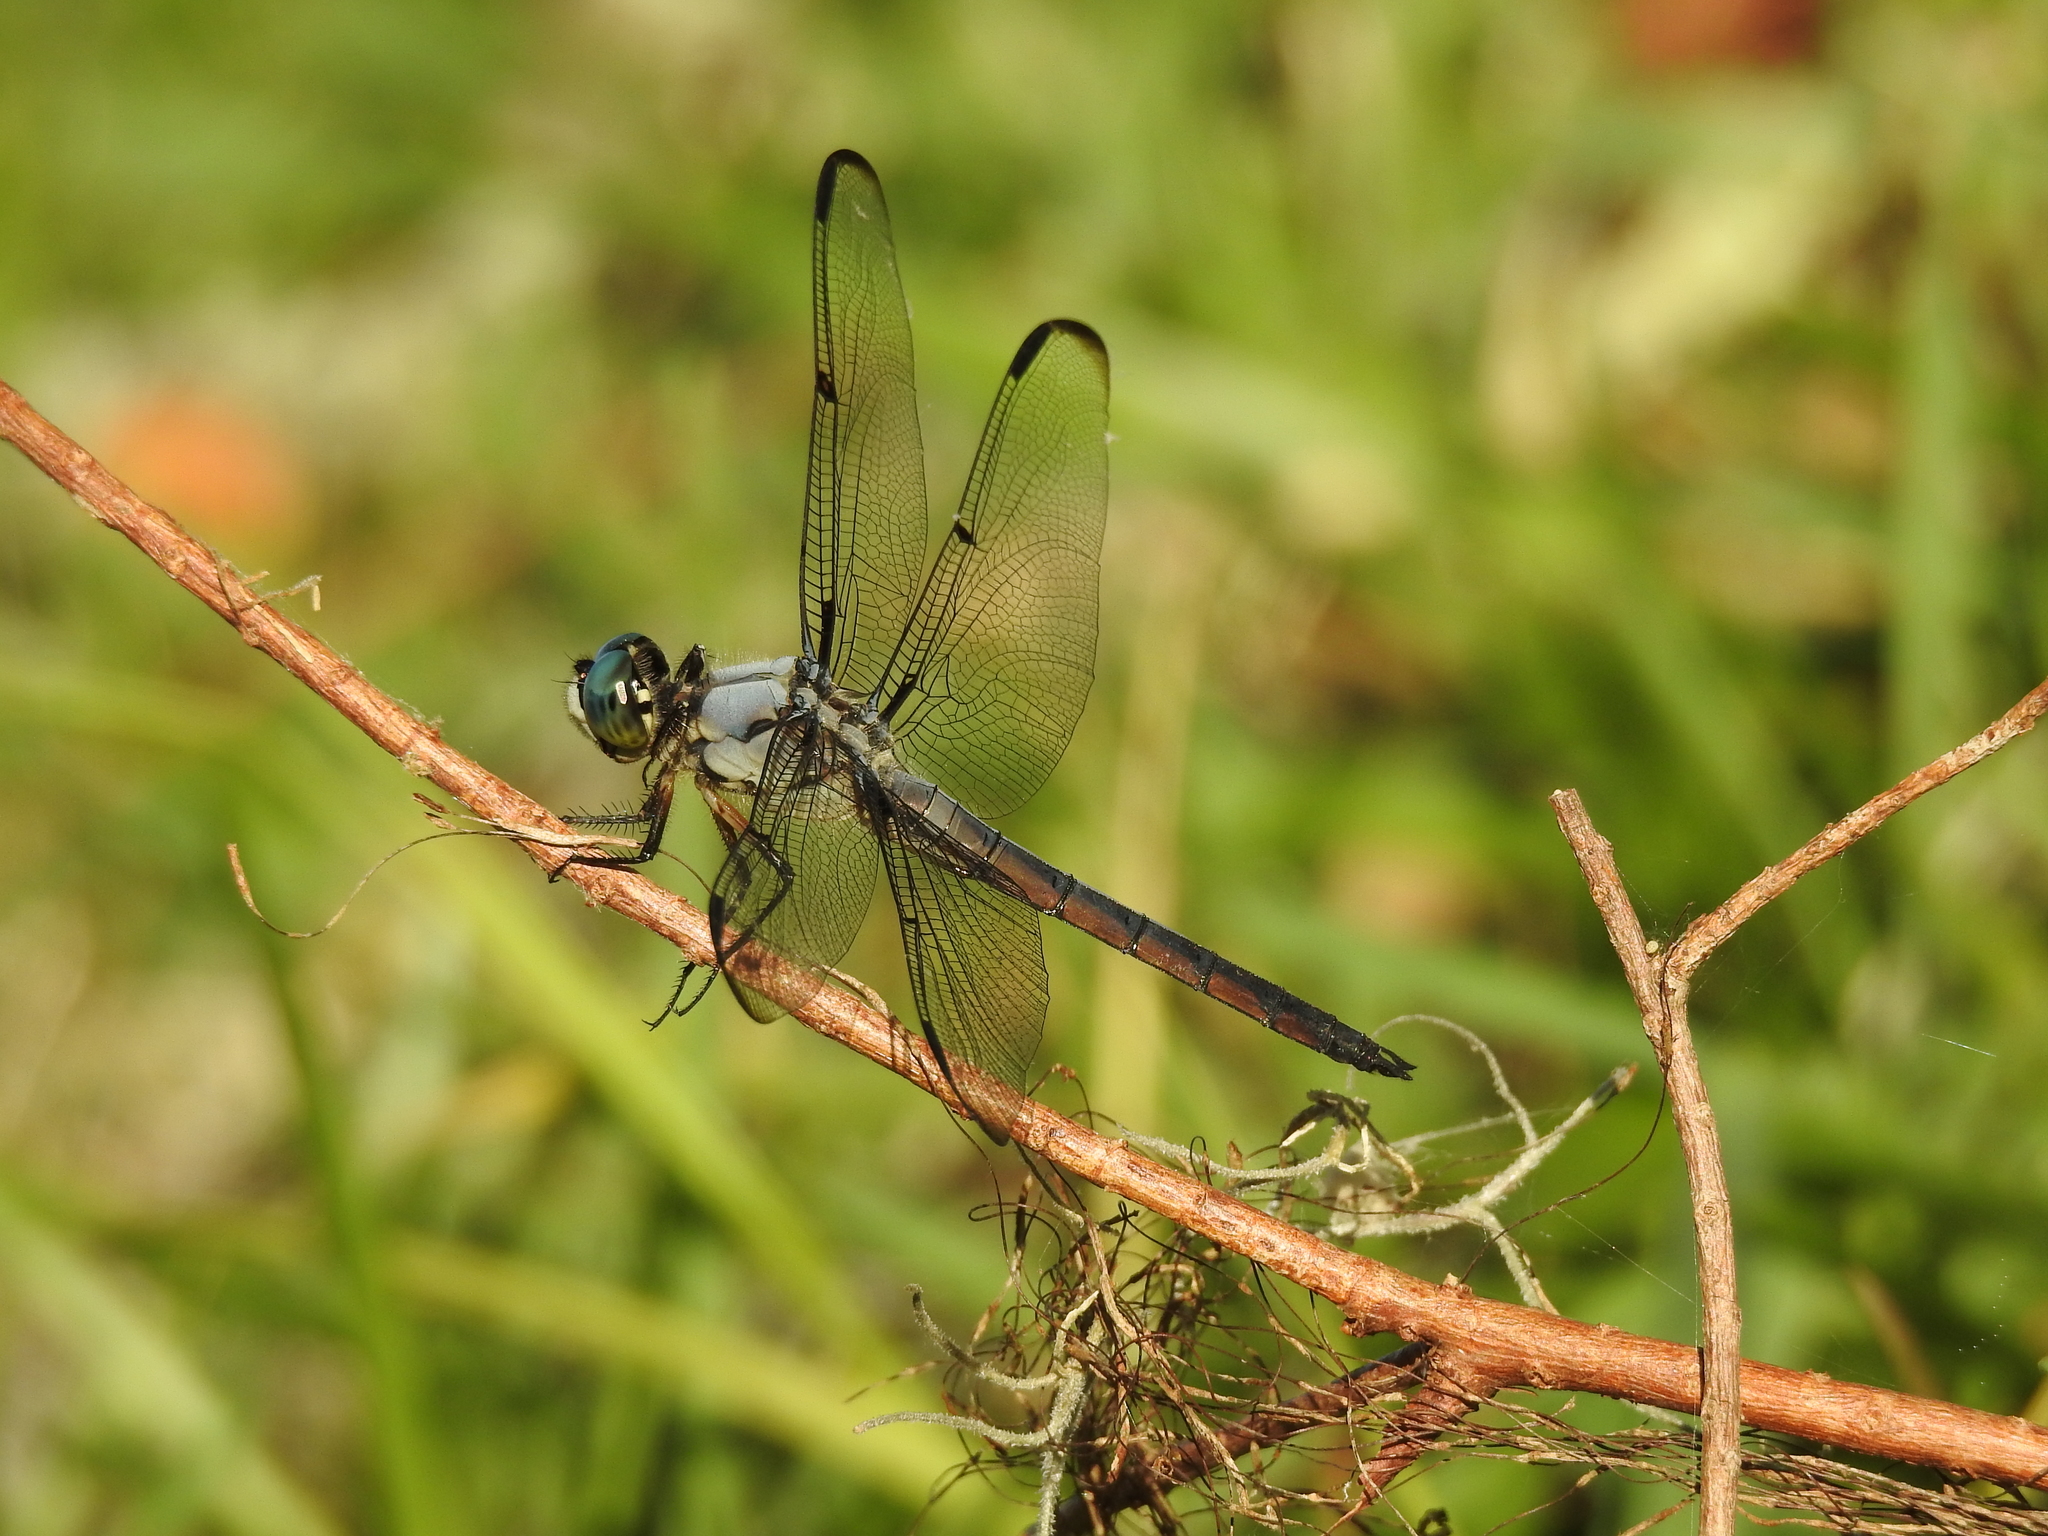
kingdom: Animalia
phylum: Arthropoda
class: Insecta
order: Odonata
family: Libellulidae
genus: Libellula
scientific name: Libellula vibrans
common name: Great blue skimmer
